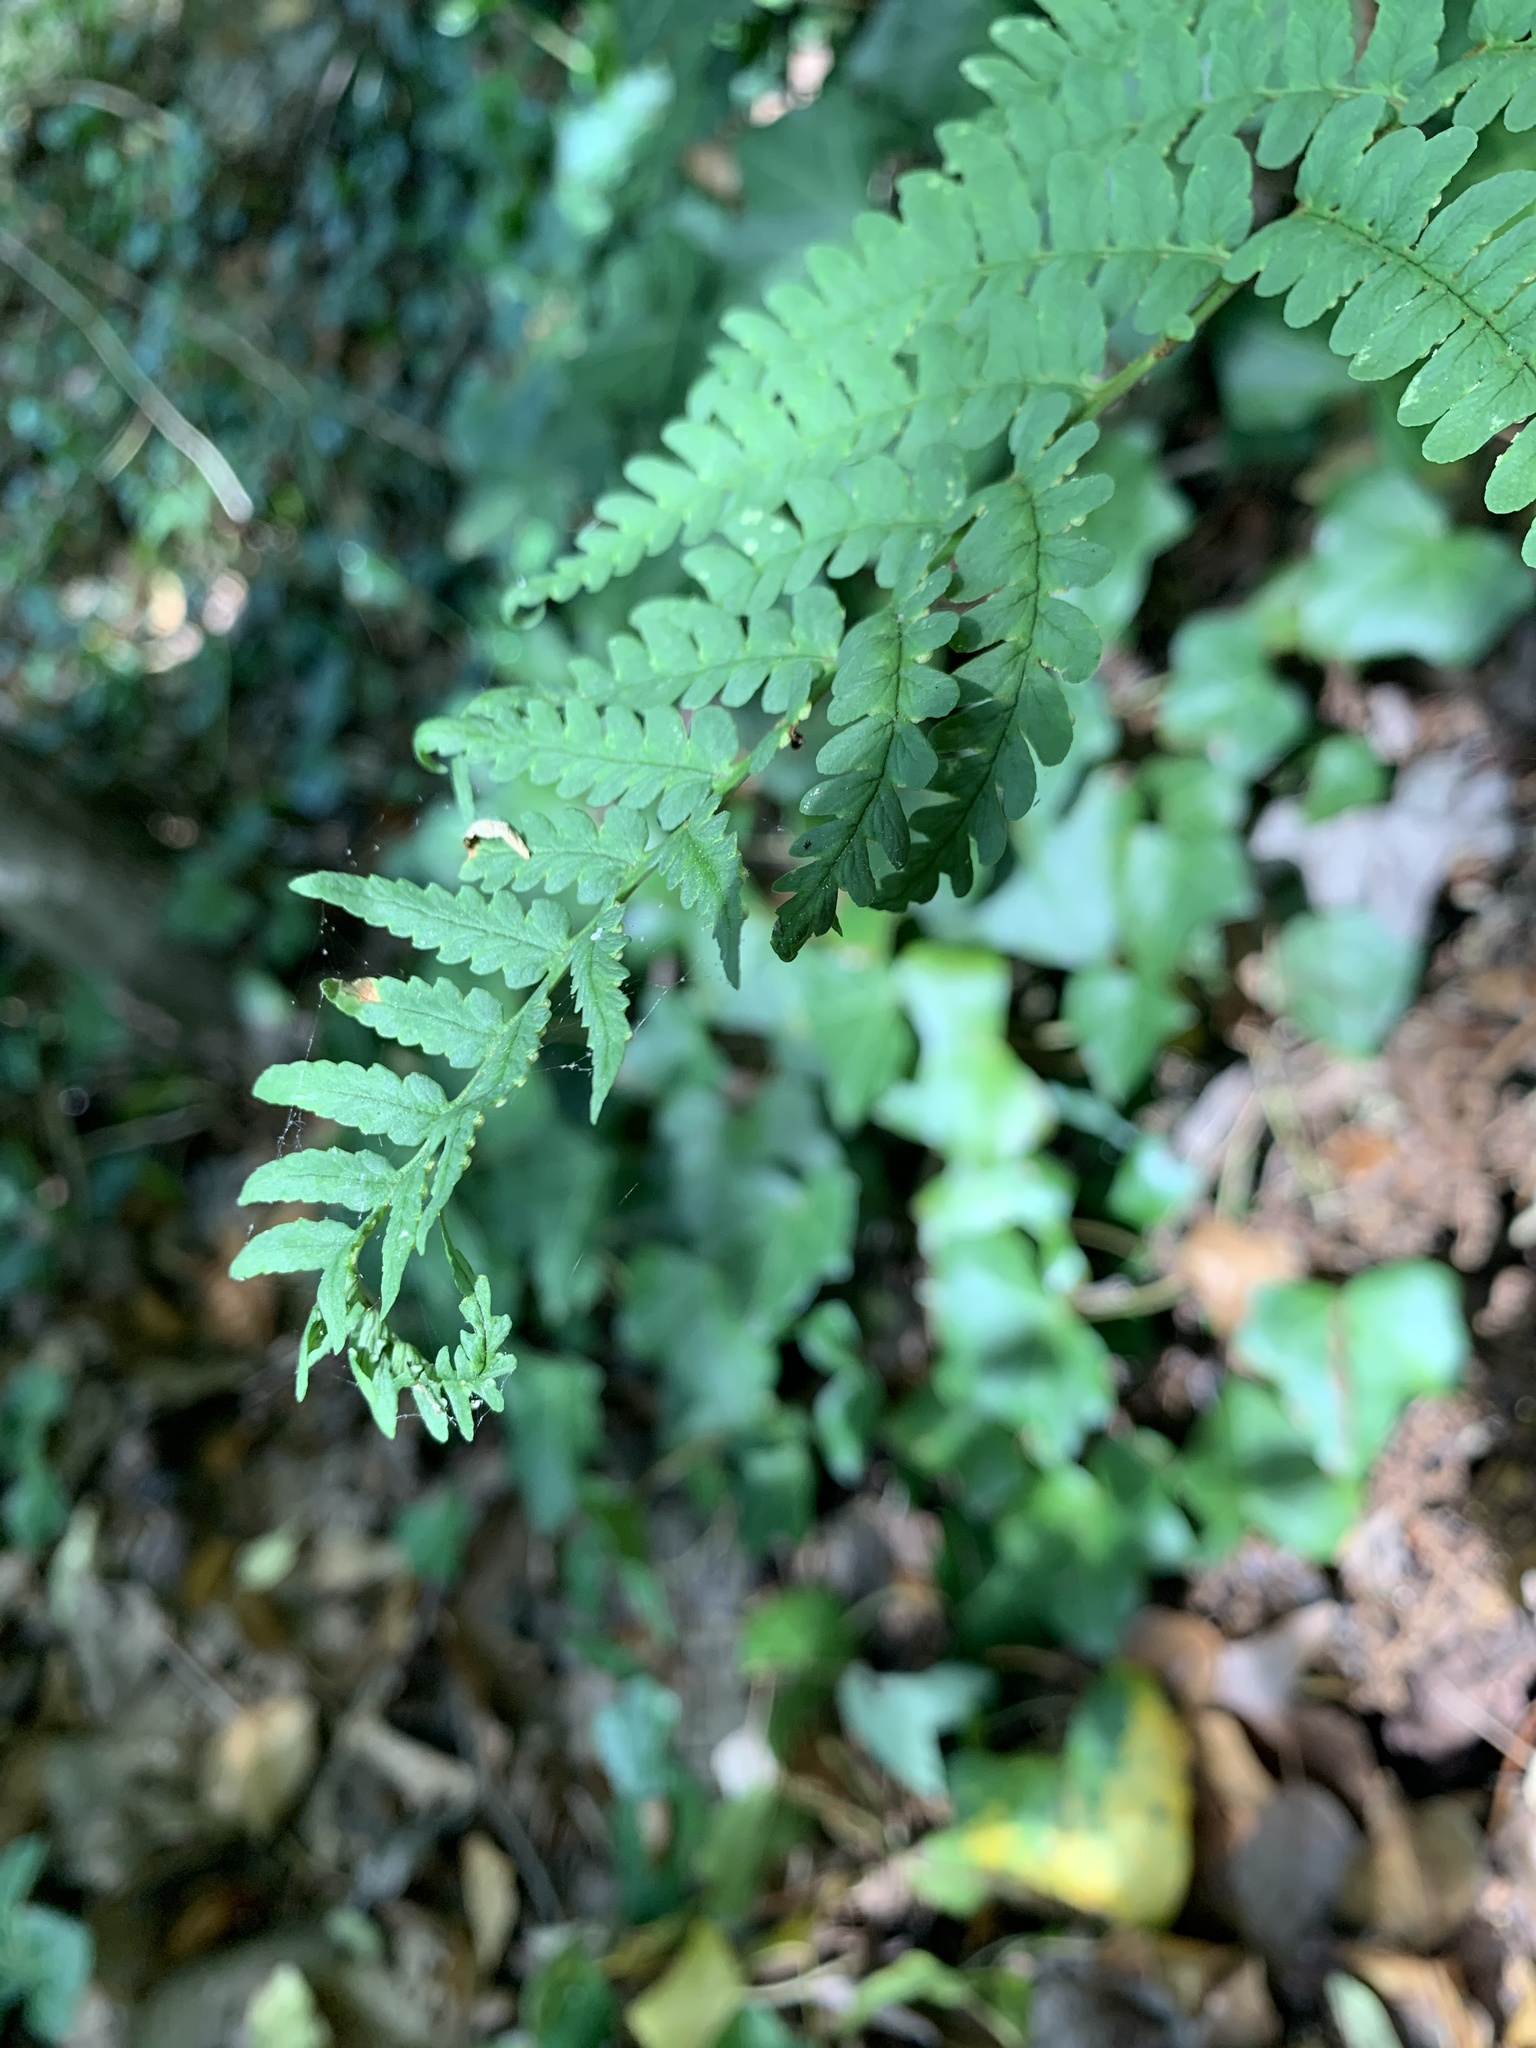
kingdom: Plantae
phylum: Tracheophyta
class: Polypodiopsida
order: Polypodiales
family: Dryopteridaceae
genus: Dryopteris
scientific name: Dryopteris marginalis
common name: Marginal wood fern
